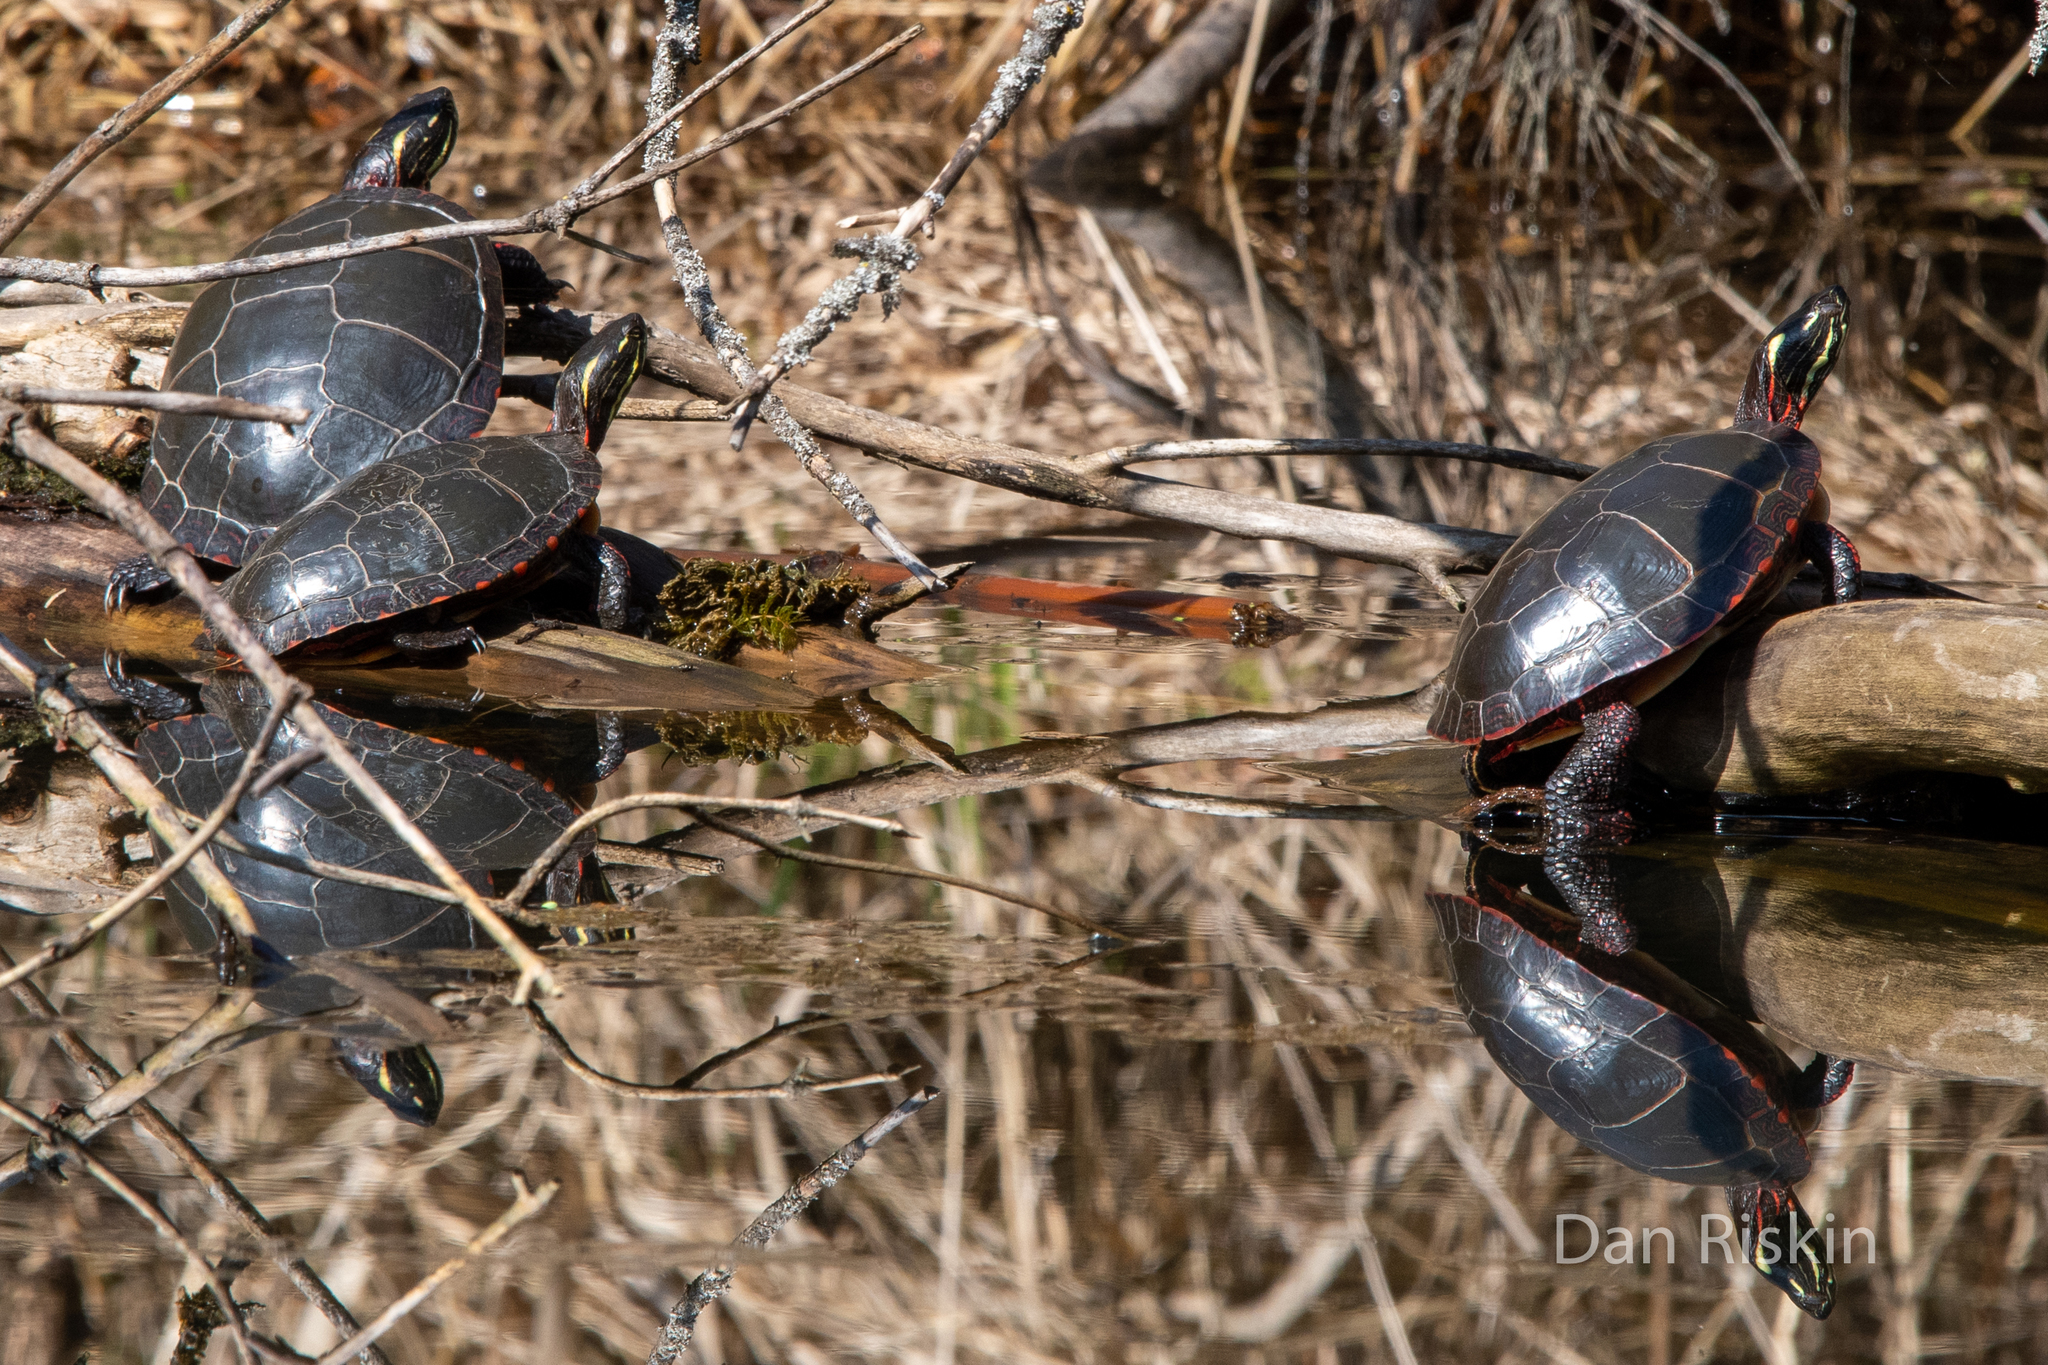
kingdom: Animalia
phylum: Chordata
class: Testudines
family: Emydidae
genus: Chrysemys
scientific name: Chrysemys picta
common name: Painted turtle
